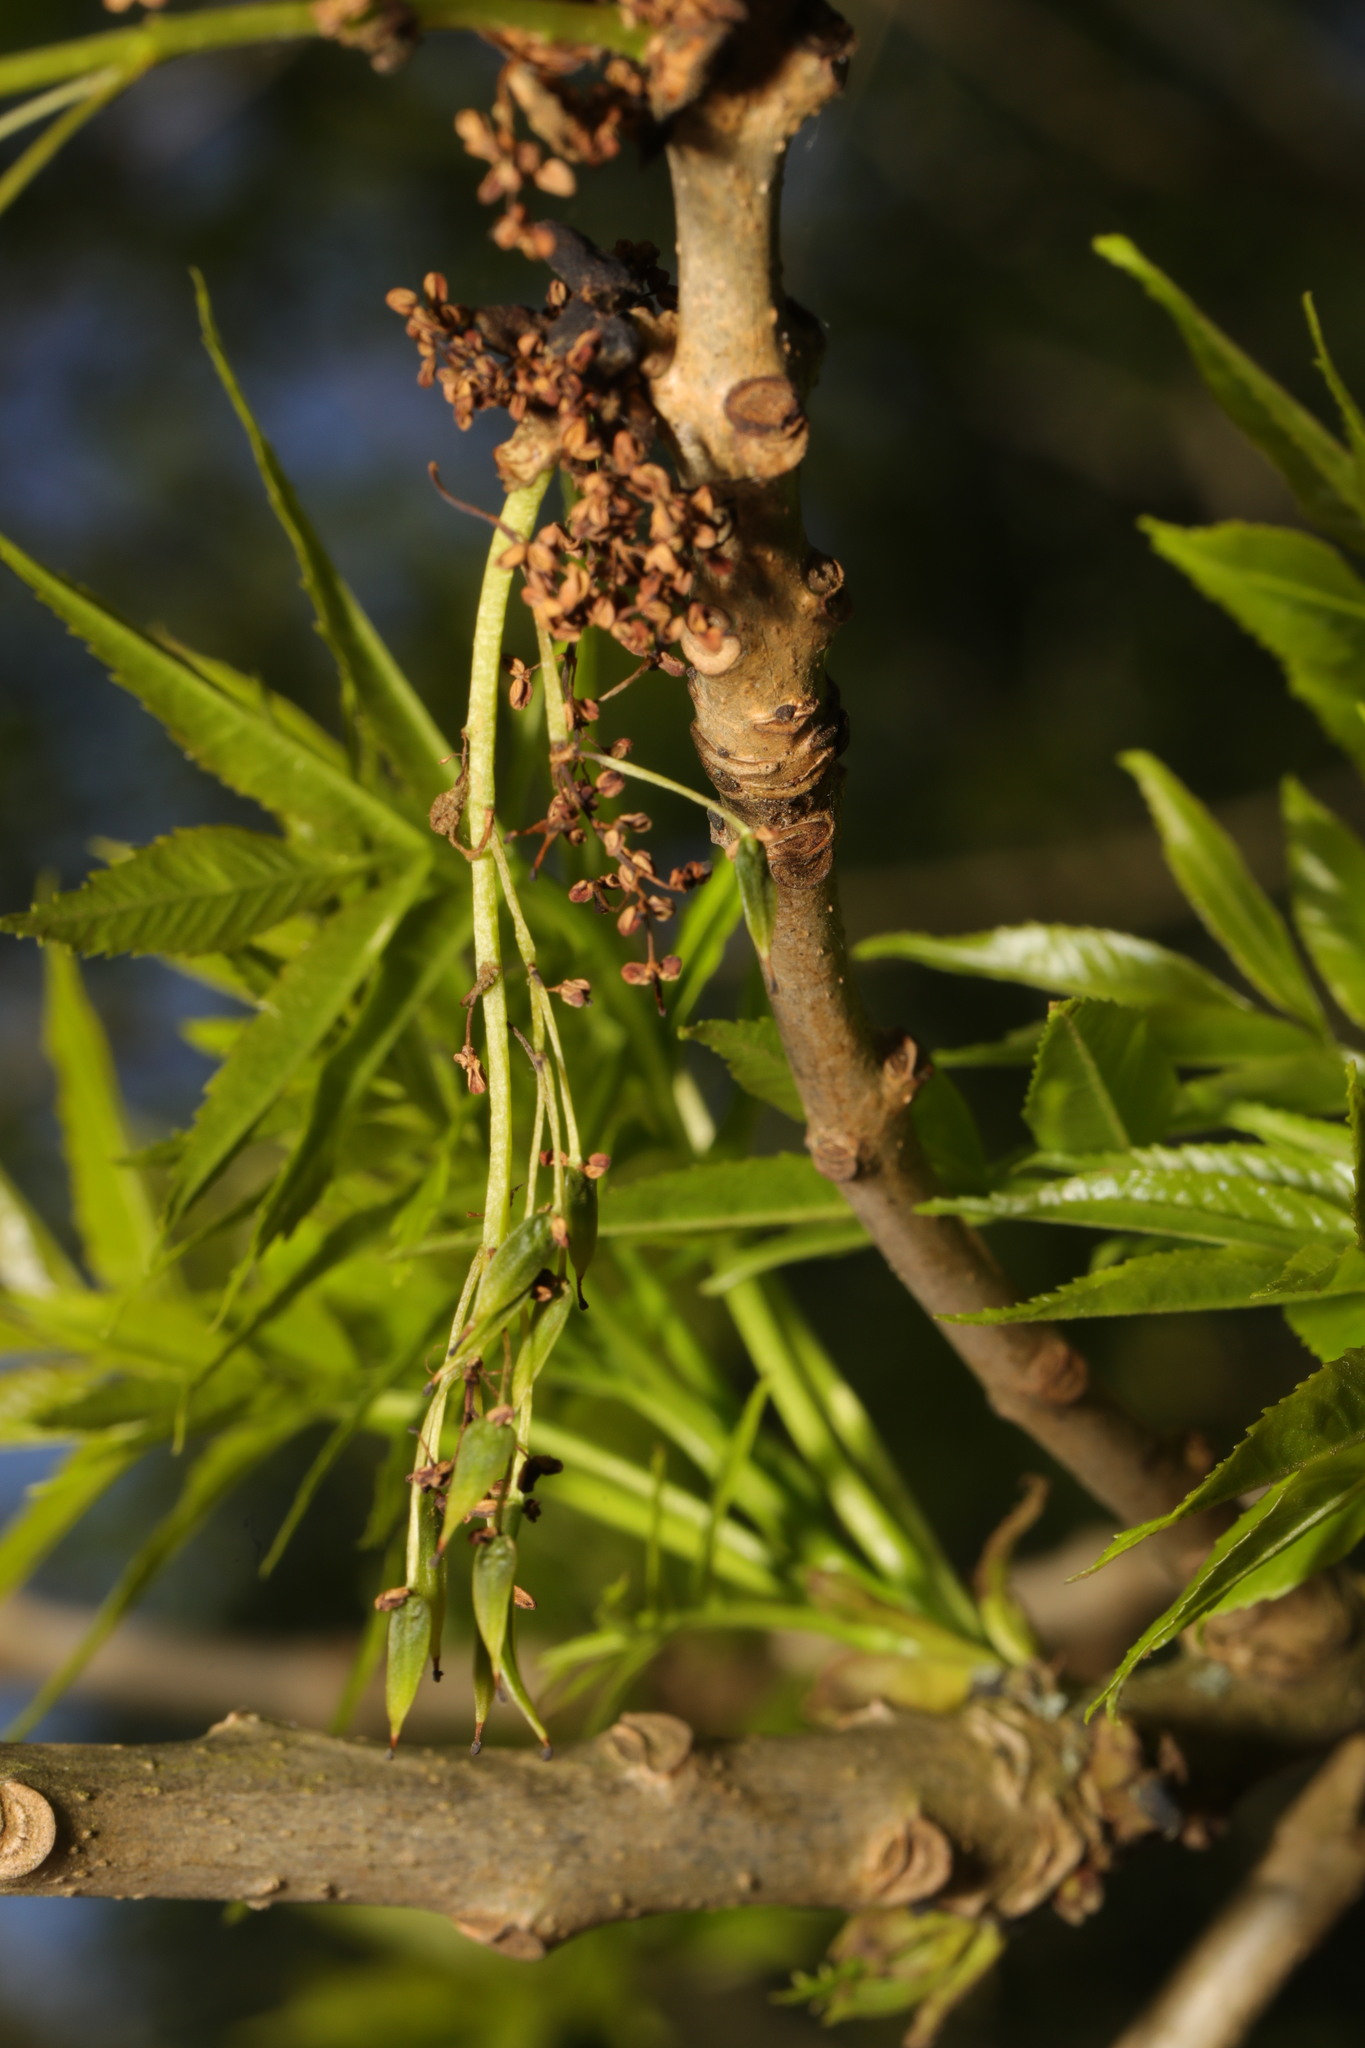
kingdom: Plantae
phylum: Tracheophyta
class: Magnoliopsida
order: Lamiales
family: Oleaceae
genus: Fraxinus
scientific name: Fraxinus excelsior
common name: European ash
